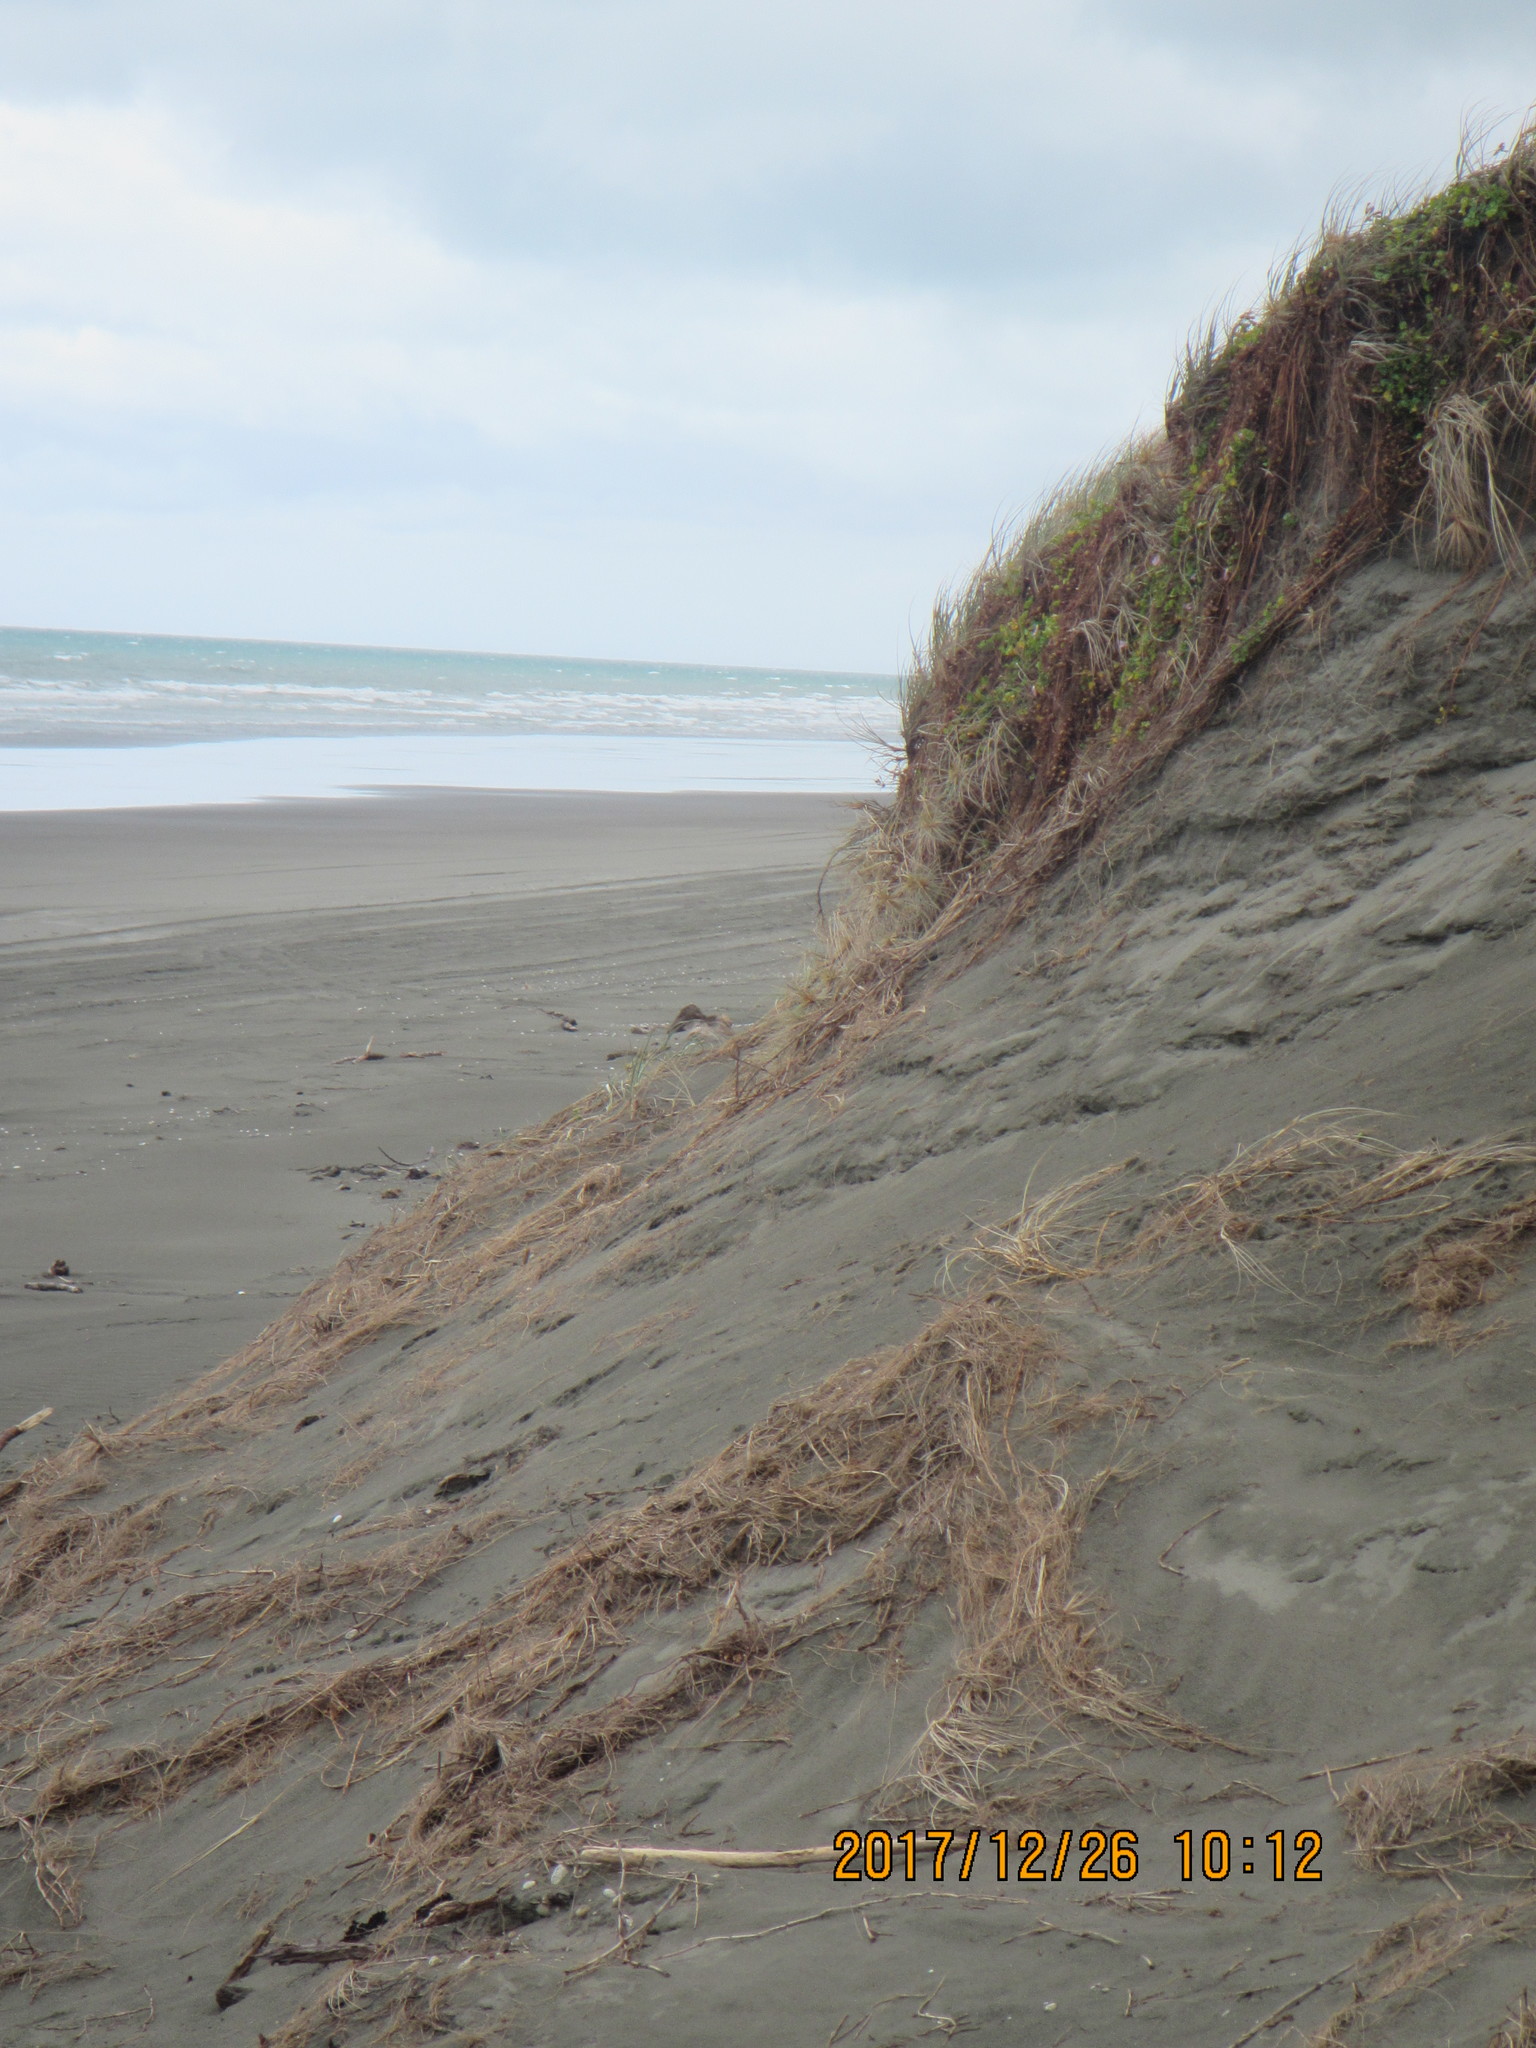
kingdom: Plantae
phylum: Tracheophyta
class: Magnoliopsida
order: Solanales
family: Convolvulaceae
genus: Calystegia
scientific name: Calystegia soldanella
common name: Sea bindweed
